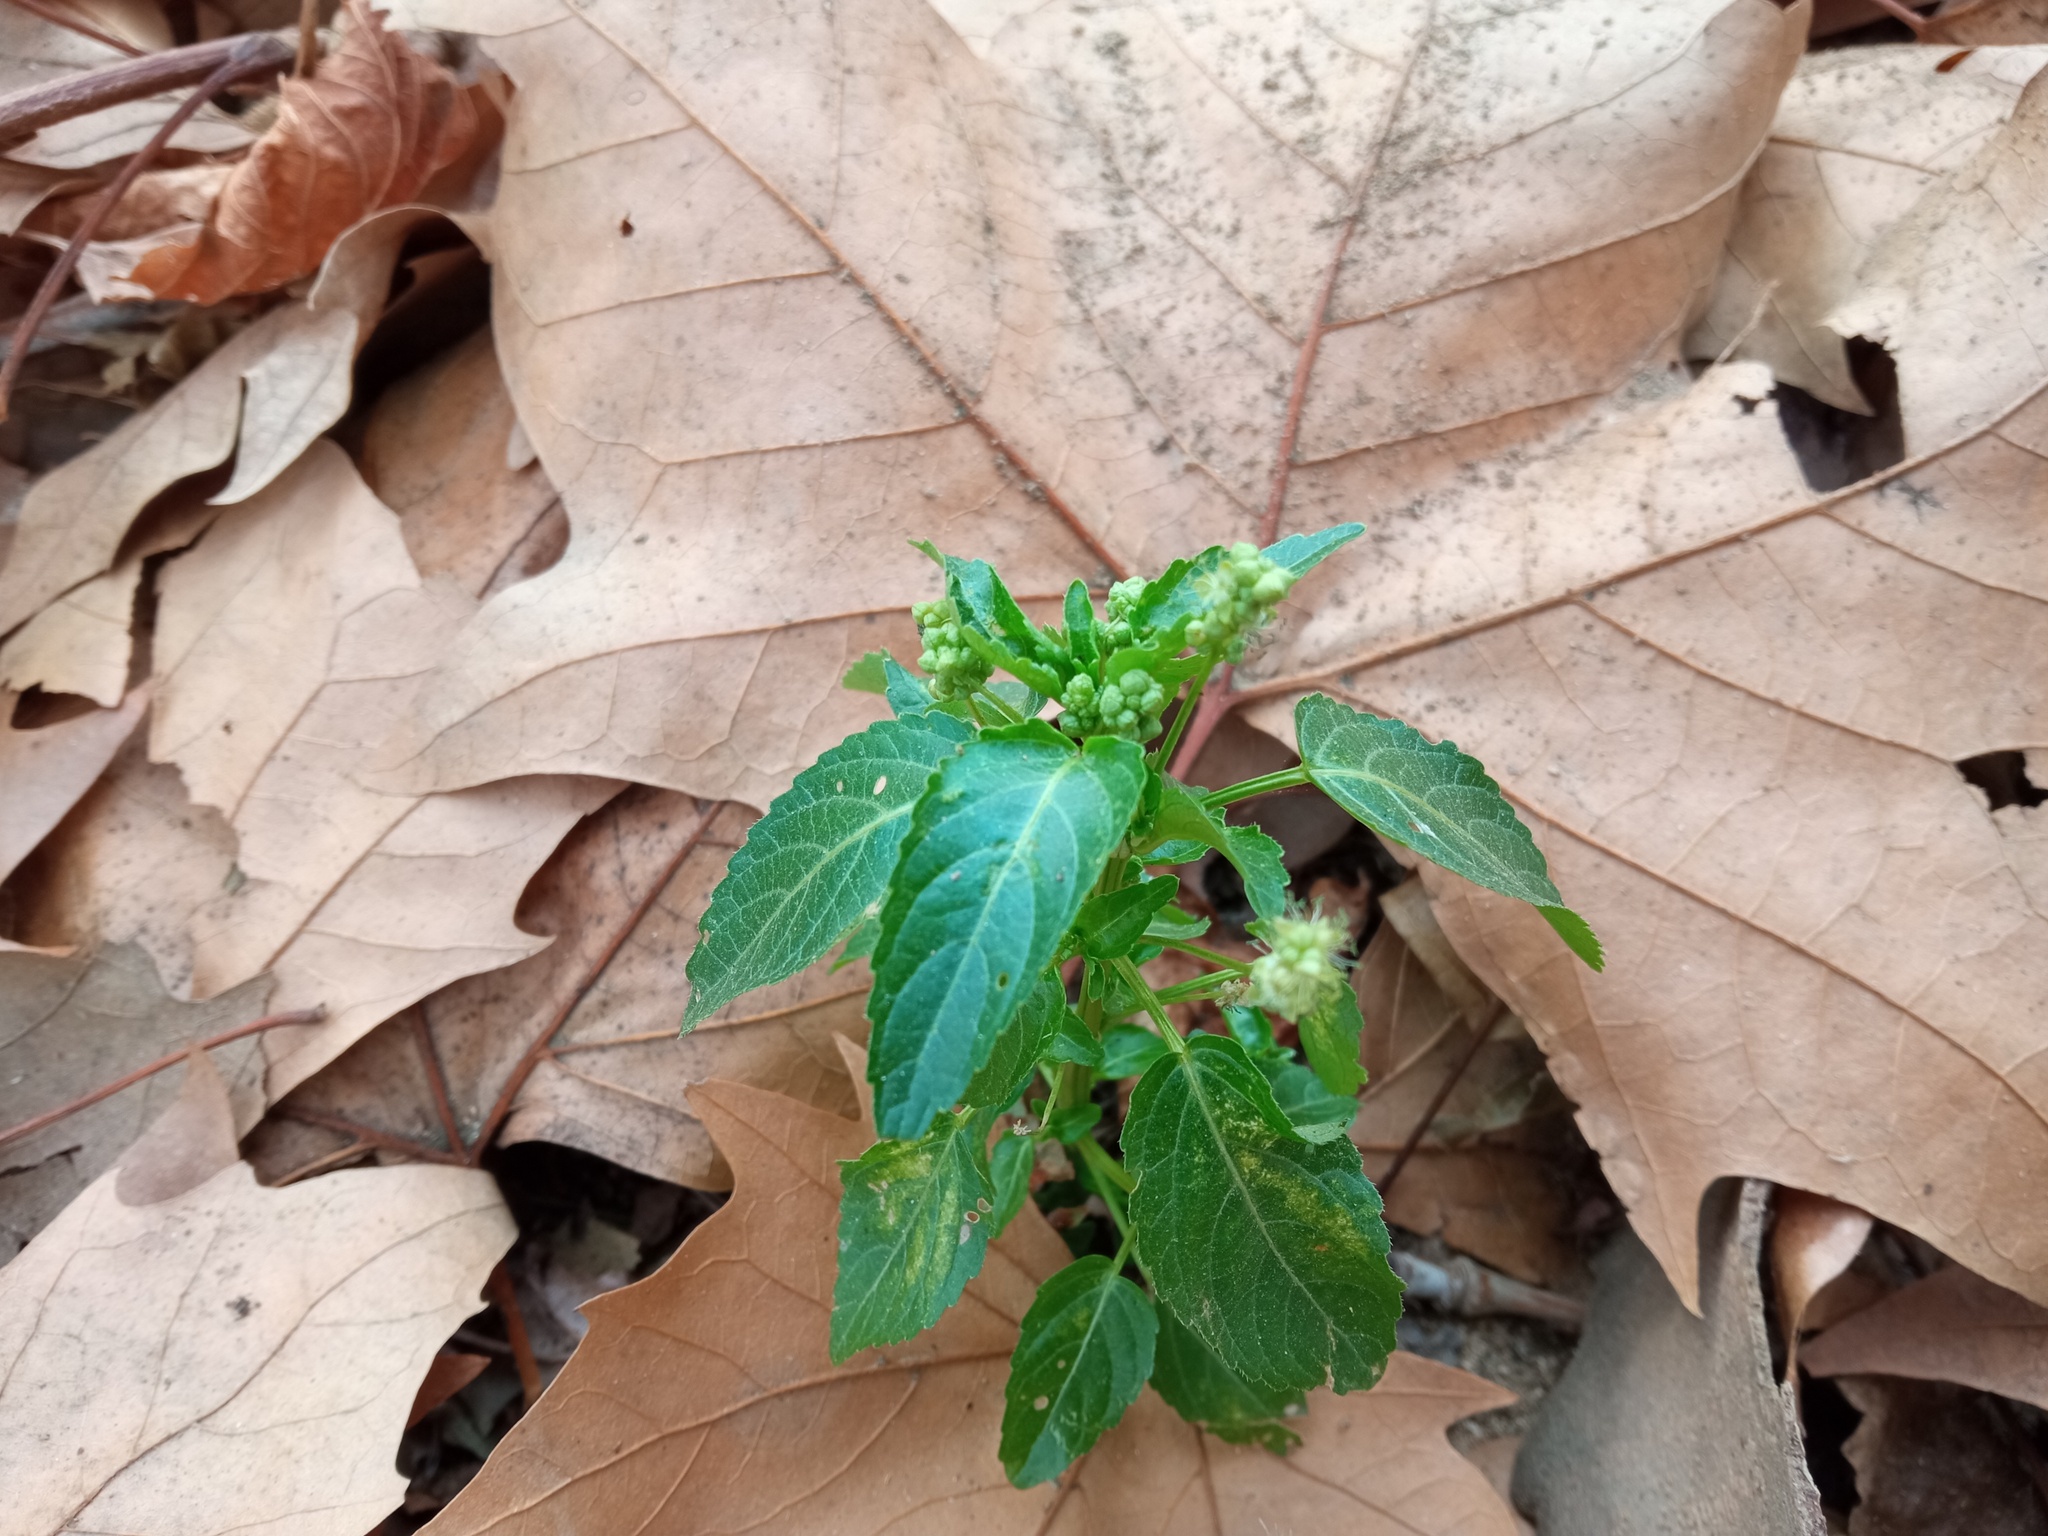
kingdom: Plantae
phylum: Tracheophyta
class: Magnoliopsida
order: Malpighiales
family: Euphorbiaceae
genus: Mercurialis
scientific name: Mercurialis annua
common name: Annual mercury
